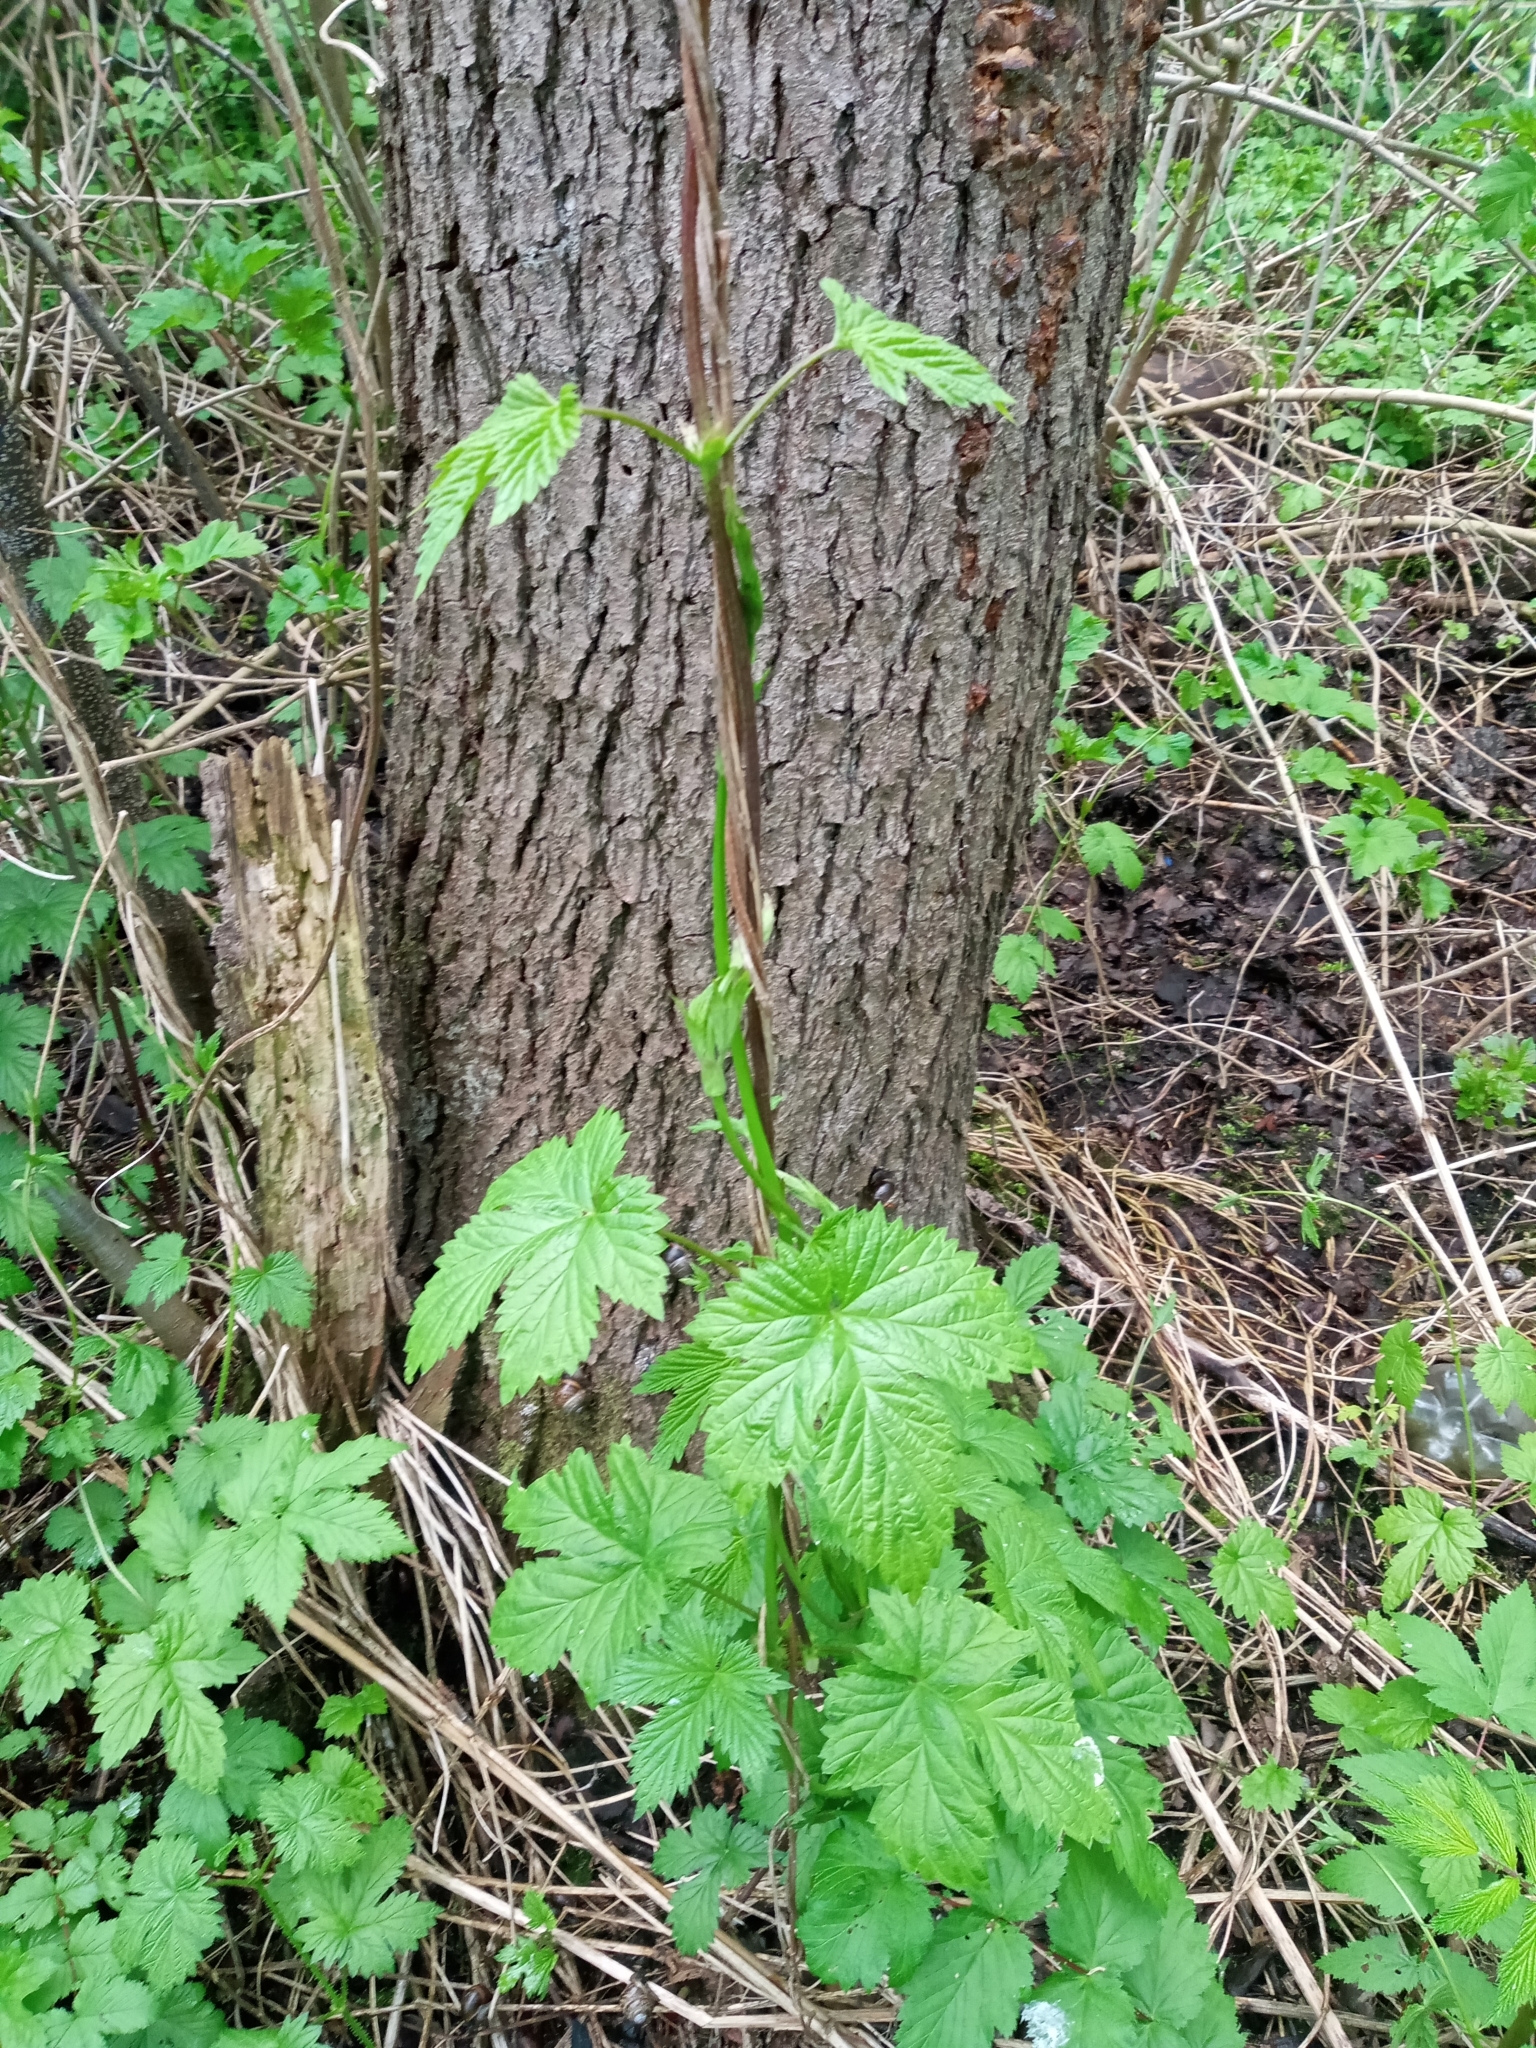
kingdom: Plantae
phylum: Tracheophyta
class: Magnoliopsida
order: Rosales
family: Cannabaceae
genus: Humulus
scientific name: Humulus lupulus
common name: Hop
